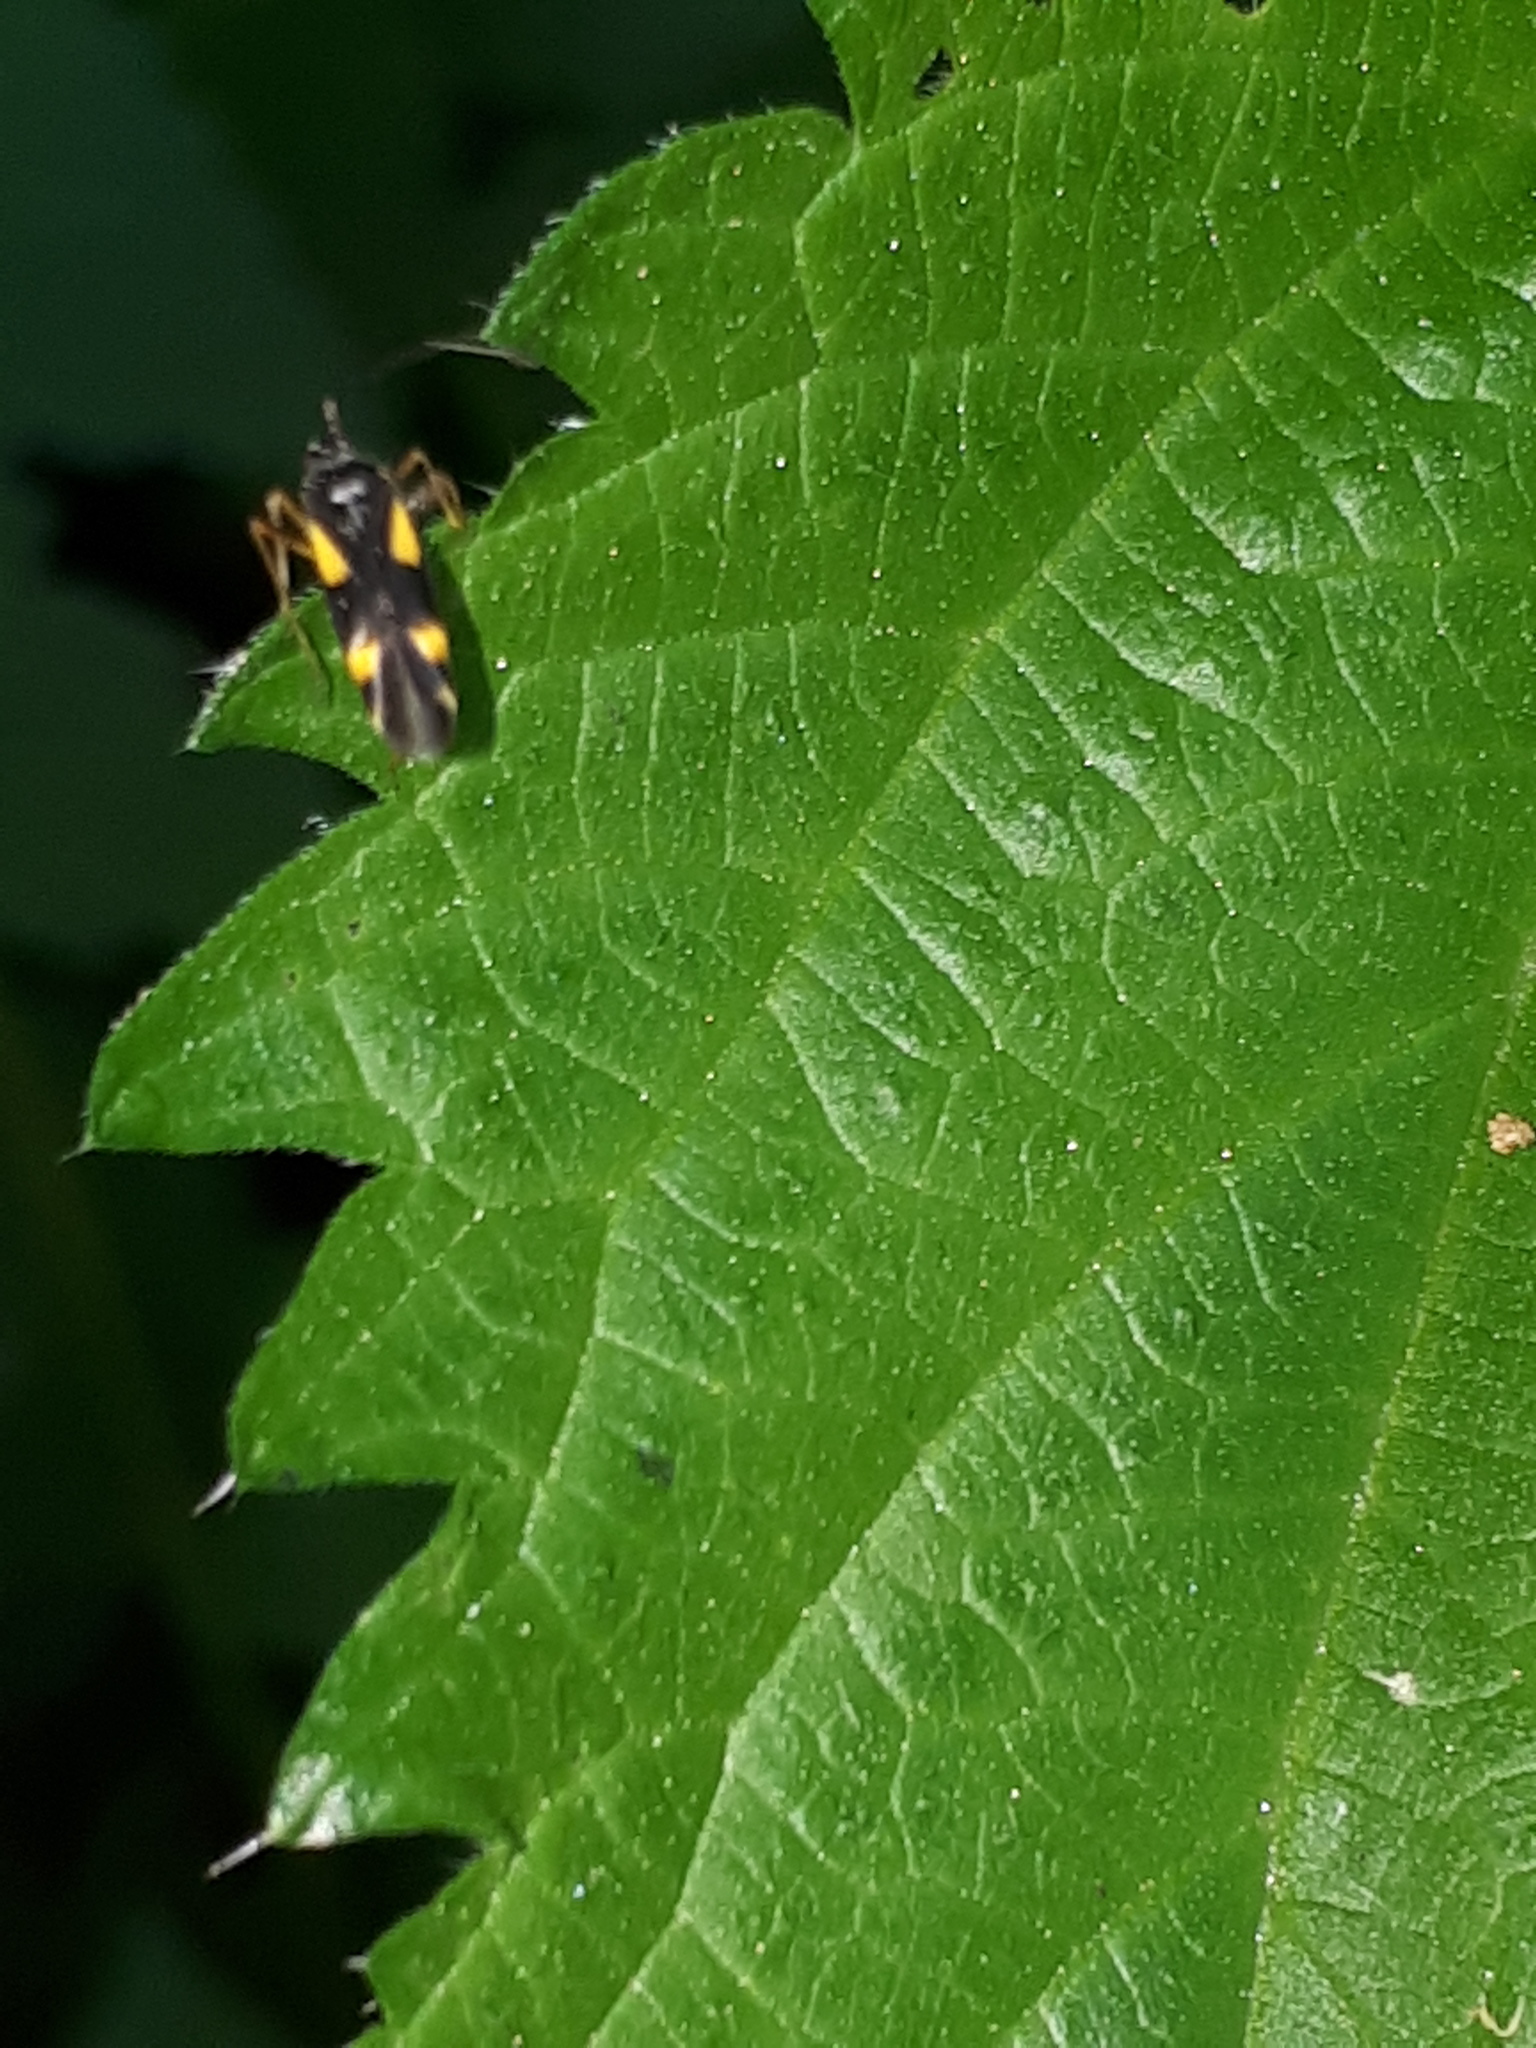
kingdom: Animalia
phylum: Arthropoda
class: Insecta
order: Hemiptera
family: Miridae
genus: Dryophilocoris
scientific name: Dryophilocoris flavoquadrimaculatus
